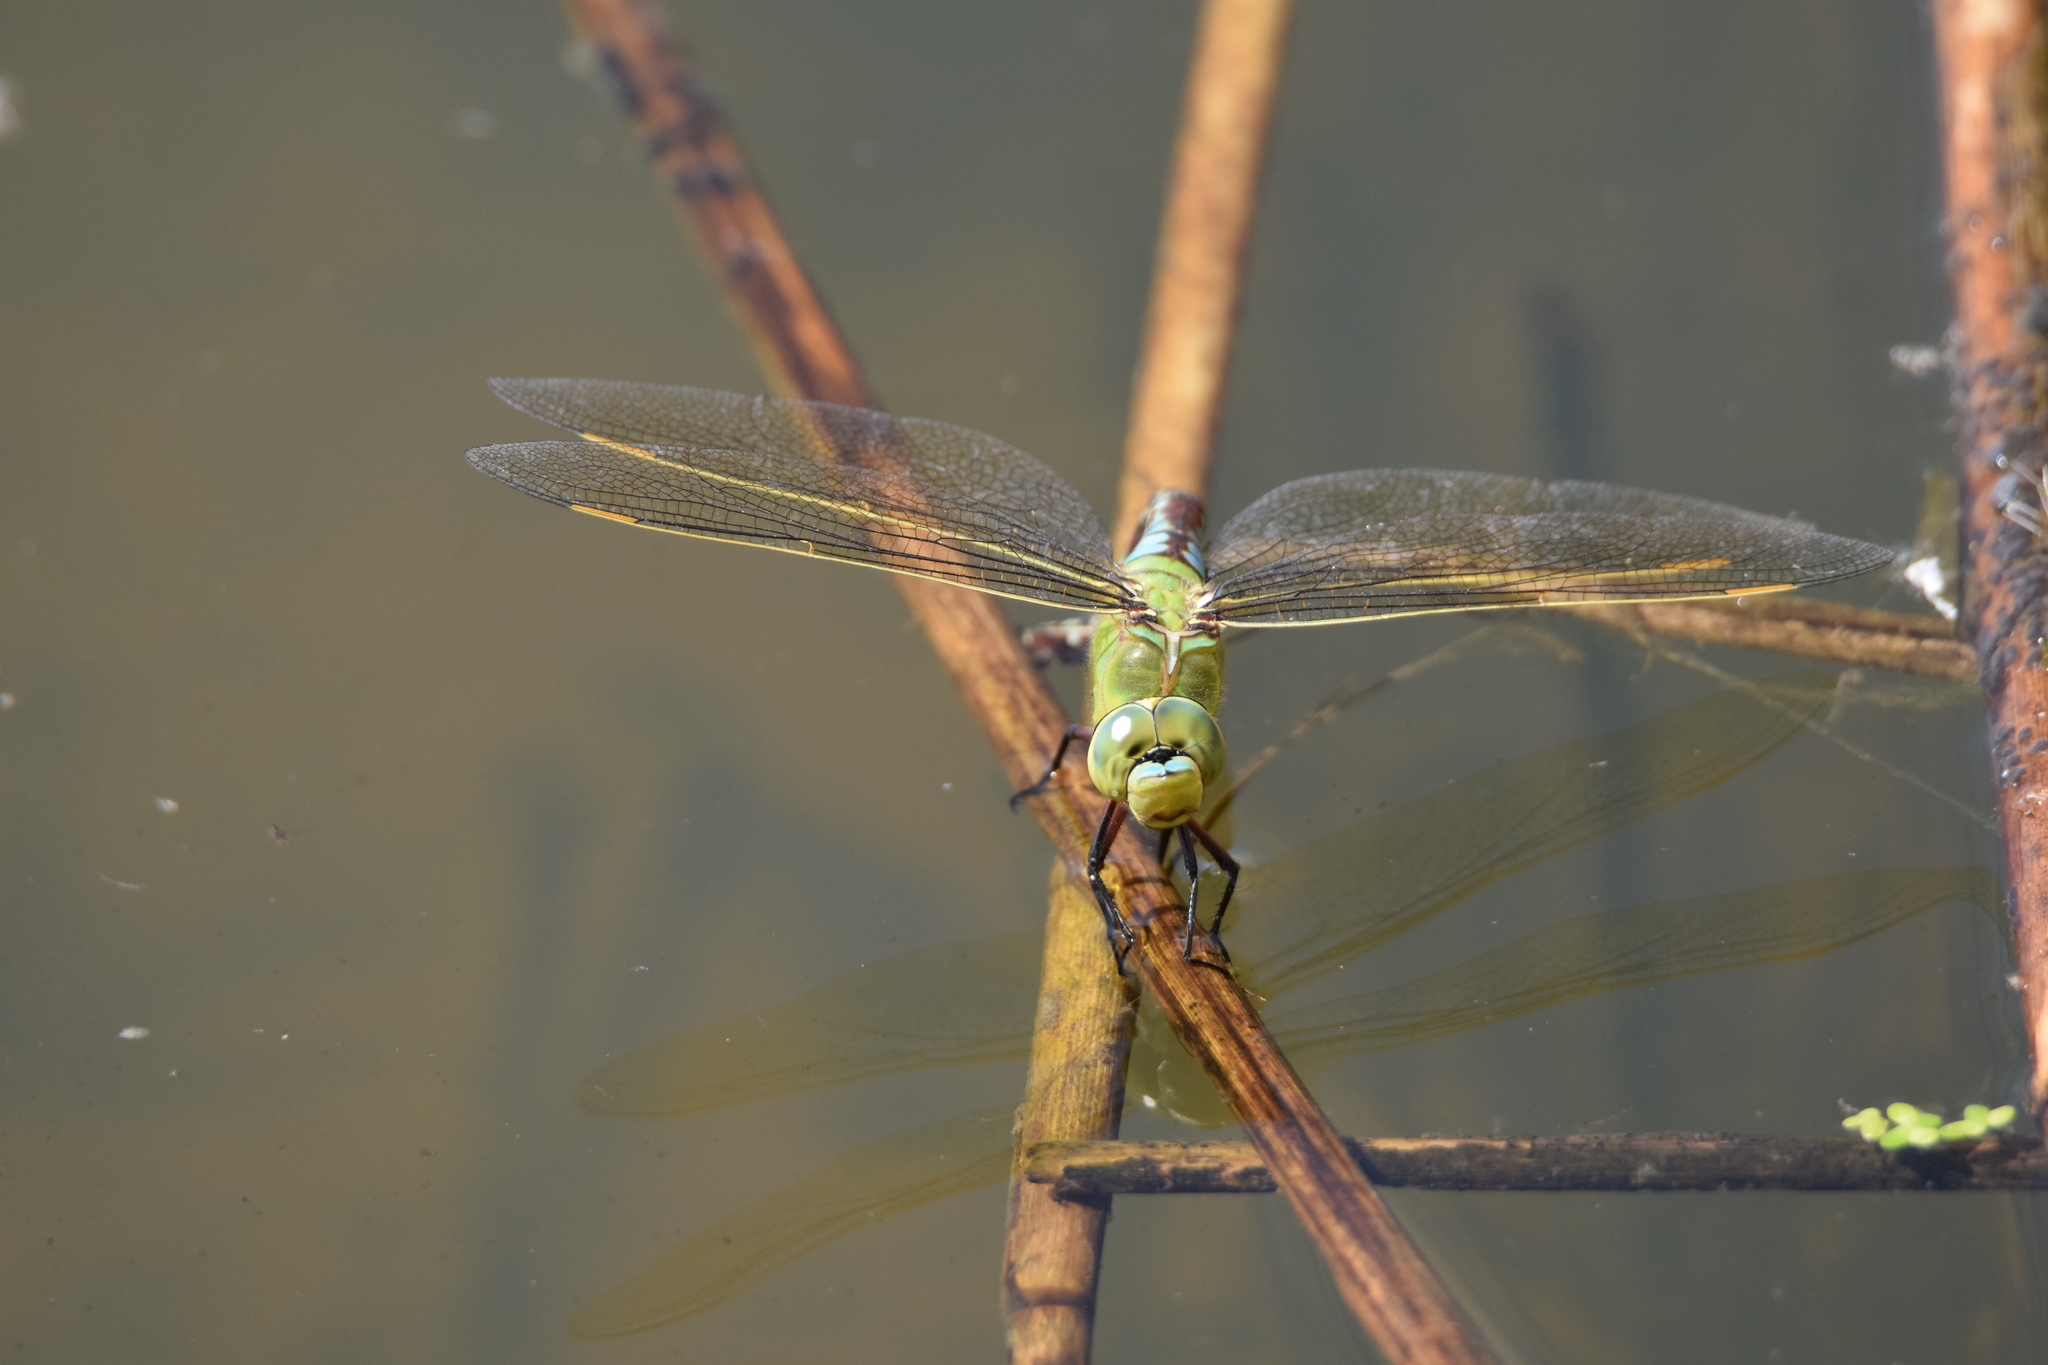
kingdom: Animalia
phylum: Arthropoda
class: Insecta
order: Odonata
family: Aeshnidae
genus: Anax
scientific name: Anax imperator
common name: Emperor dragonfly
